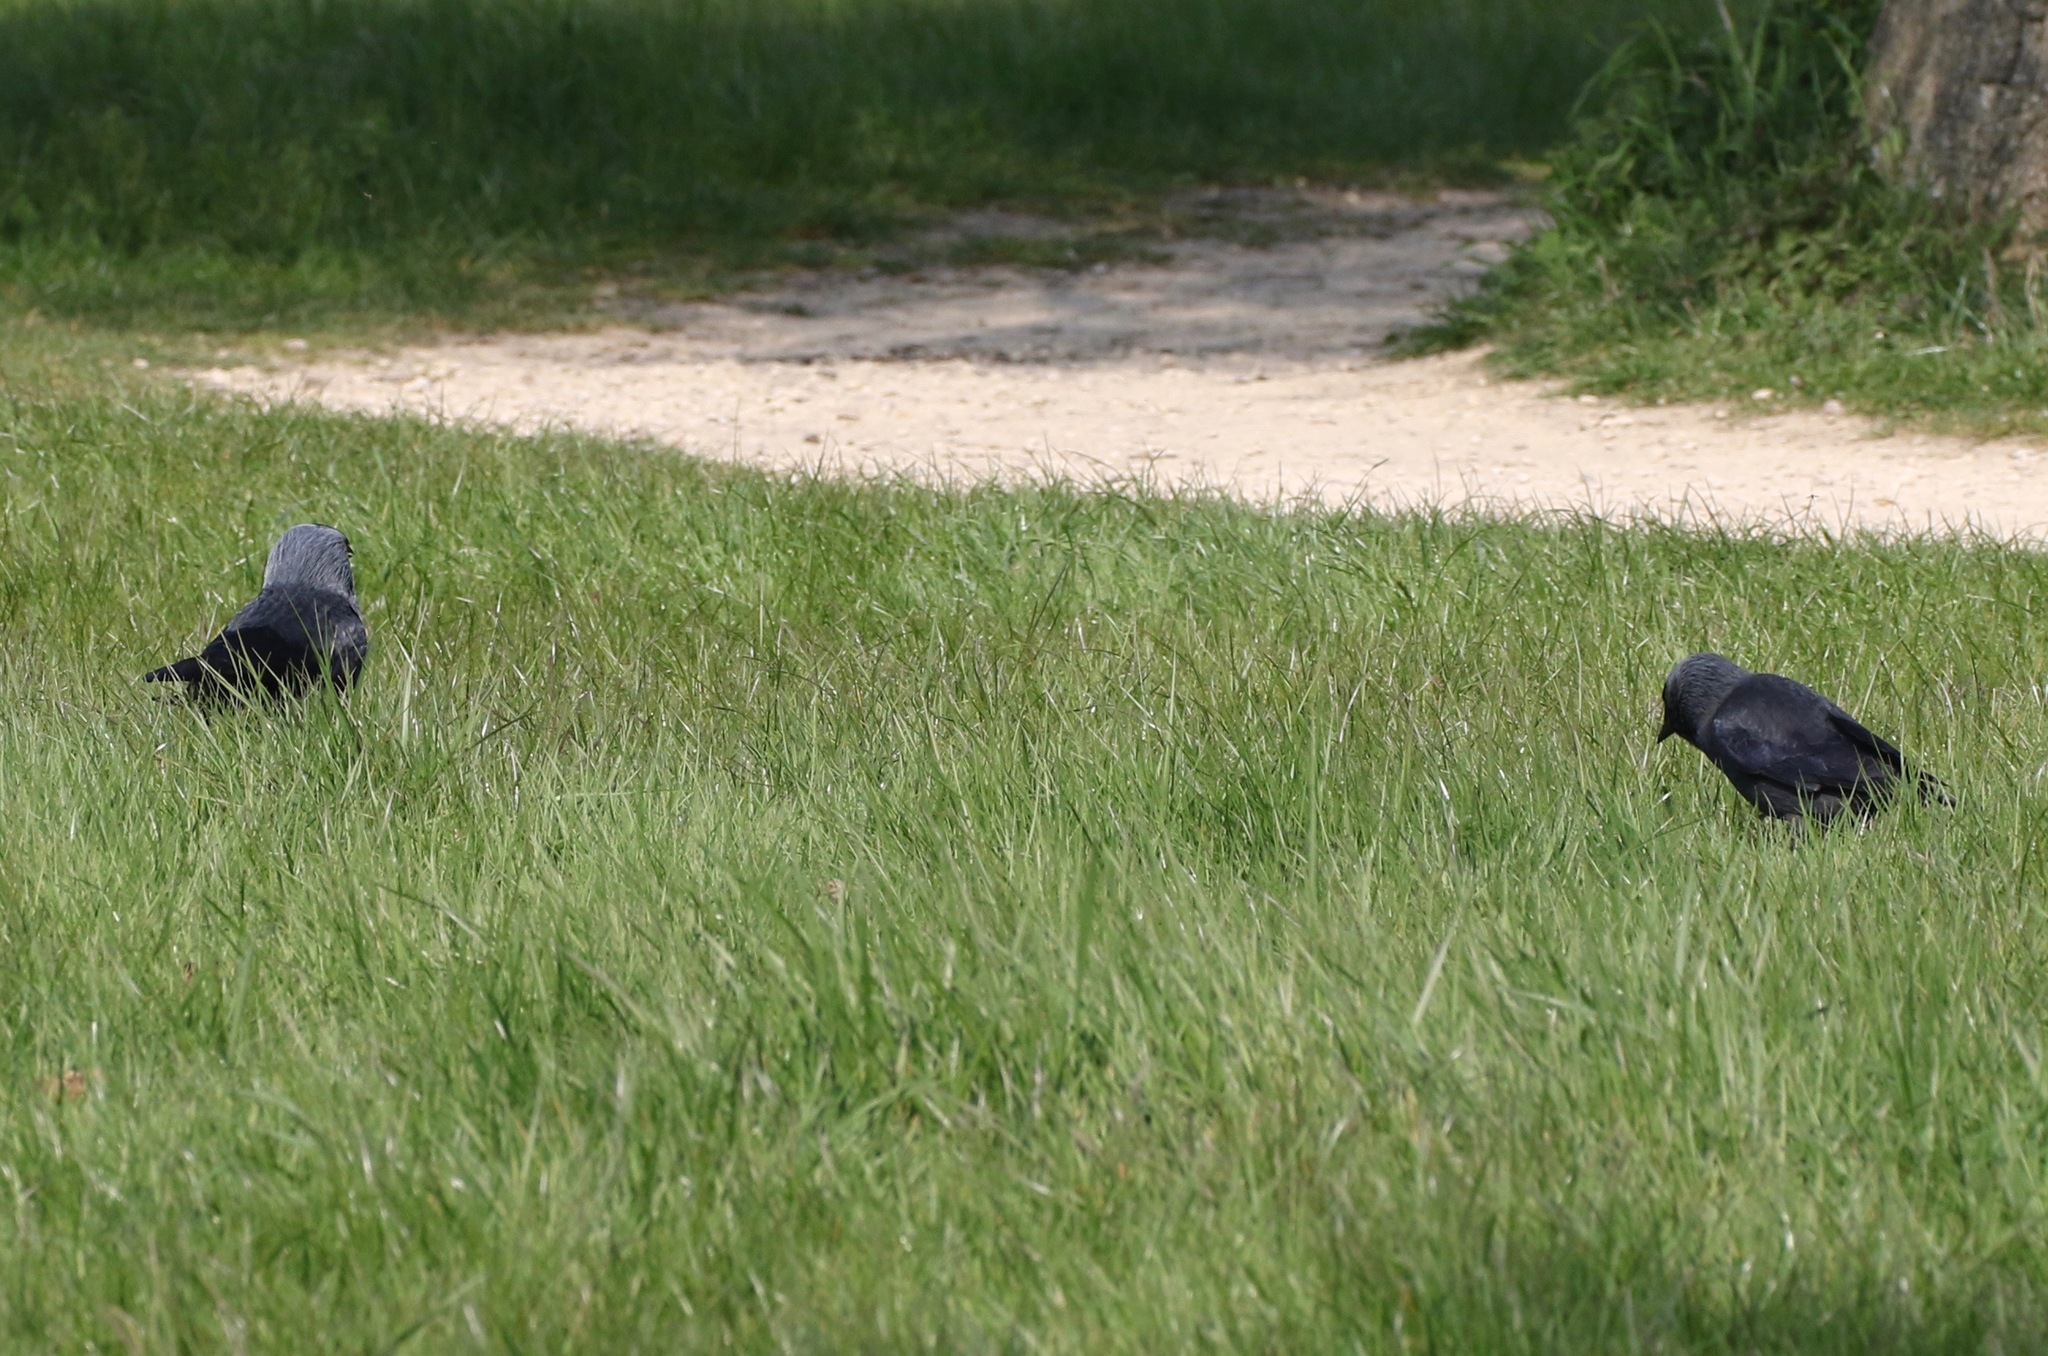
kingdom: Animalia
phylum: Chordata
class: Aves
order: Passeriformes
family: Corvidae
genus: Coloeus
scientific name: Coloeus monedula
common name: Western jackdaw
